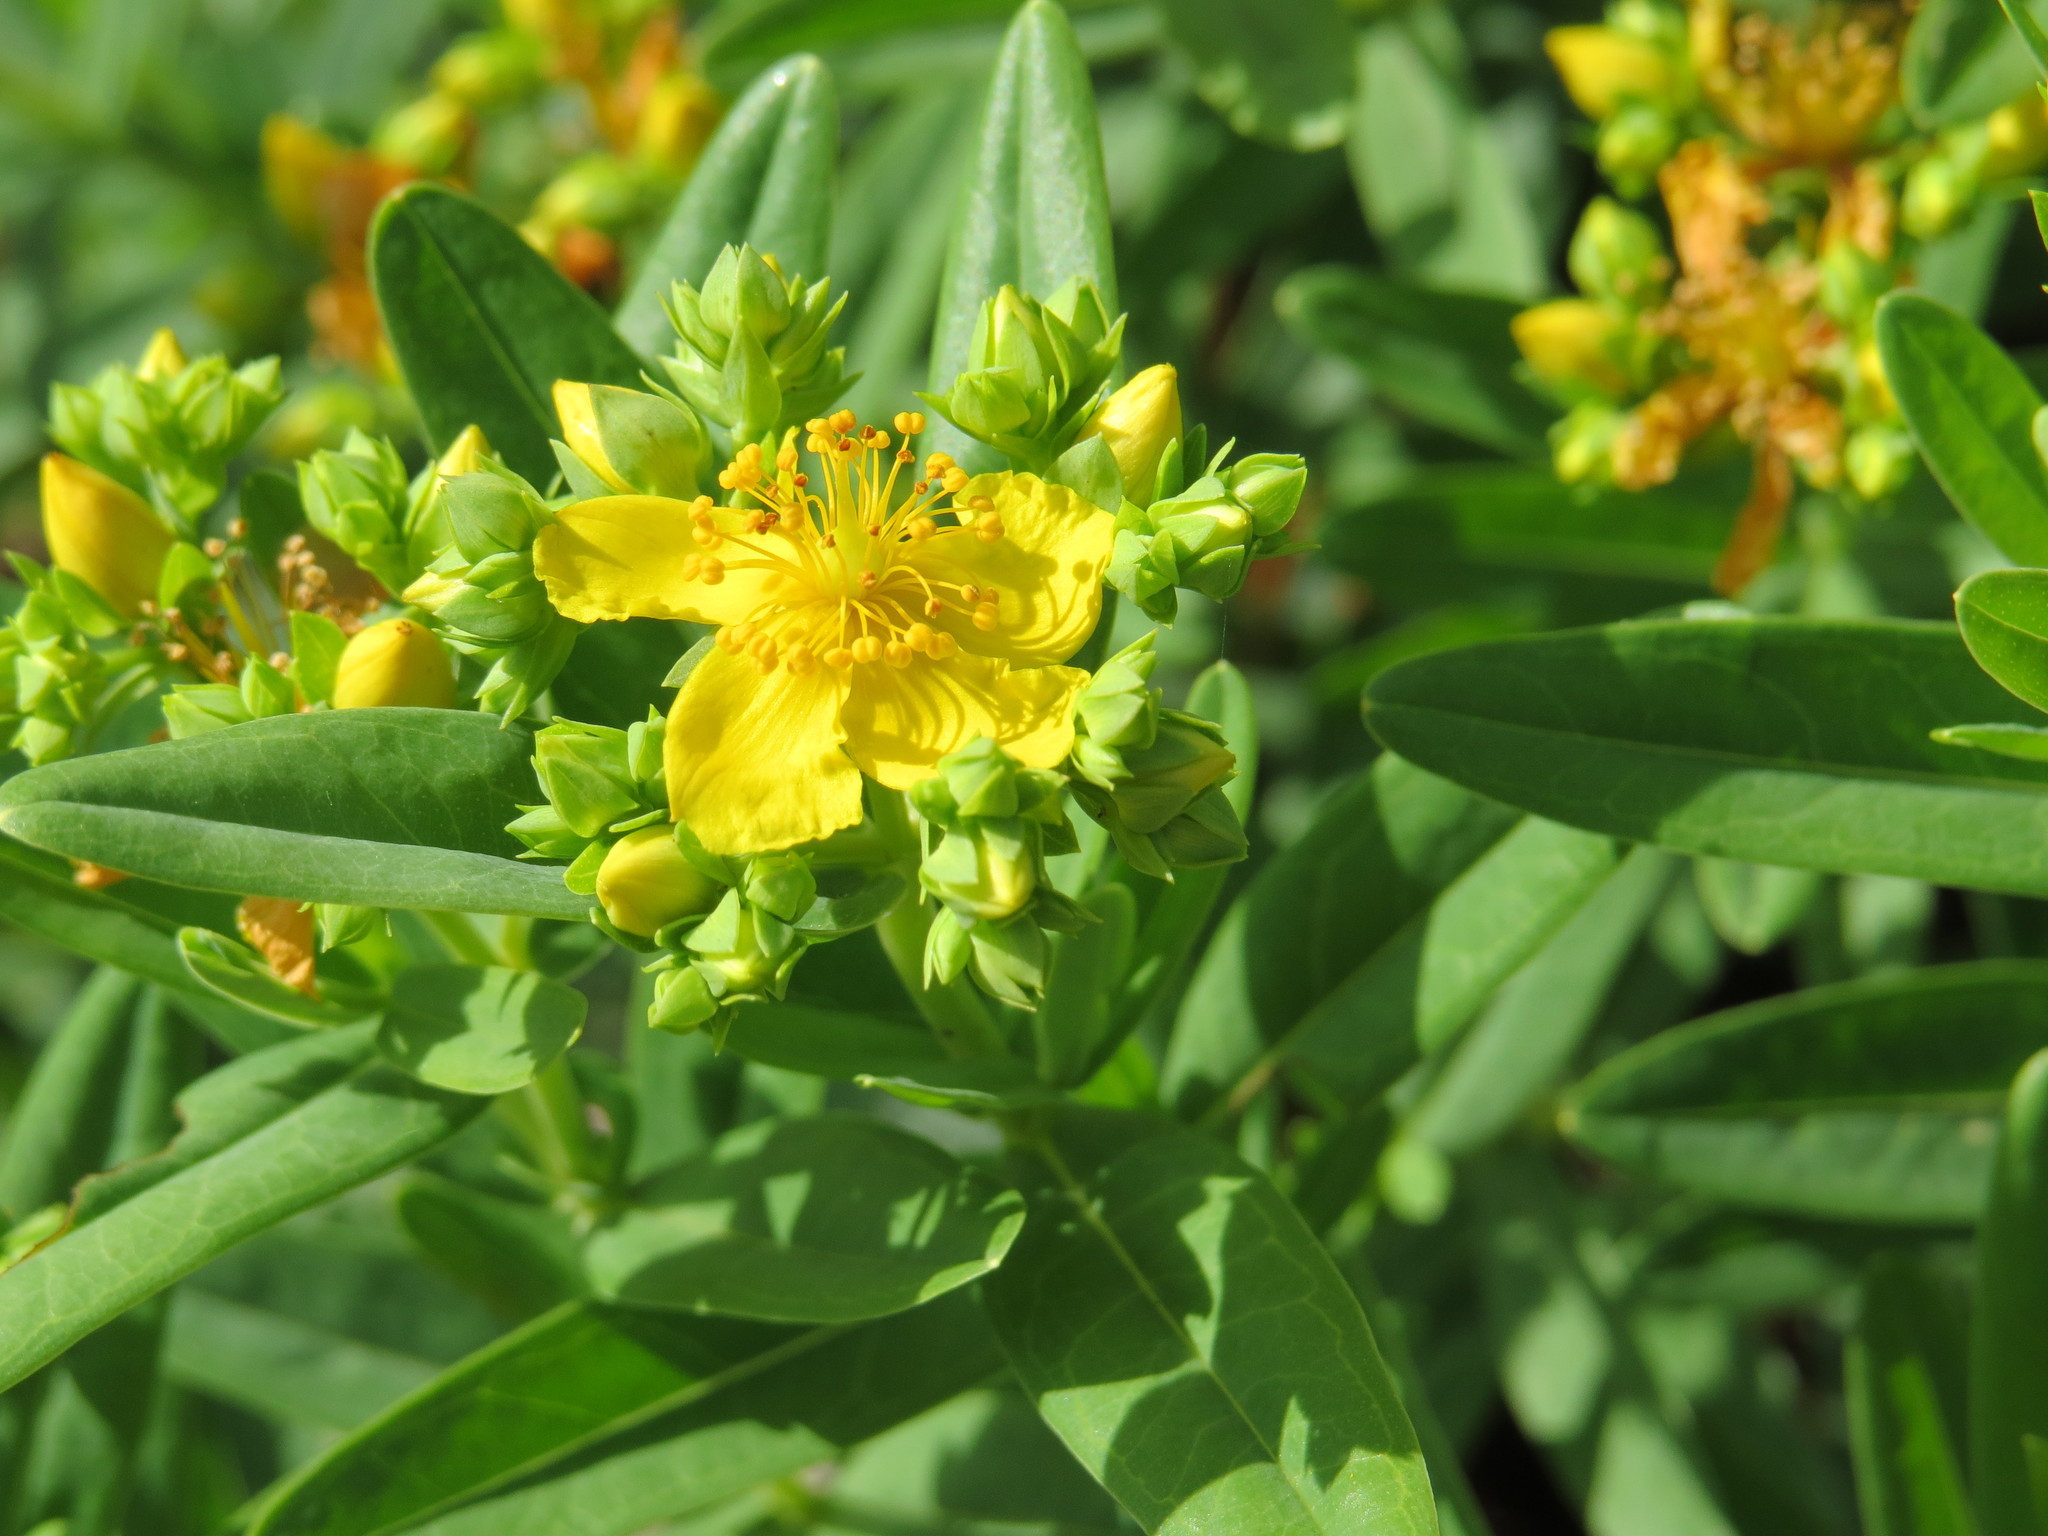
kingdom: Plantae
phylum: Tracheophyta
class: Magnoliopsida
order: Malpighiales
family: Hypericaceae
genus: Hypericum
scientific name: Hypericum sphaerocarpum
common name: Round-fruited st. john's-wort
